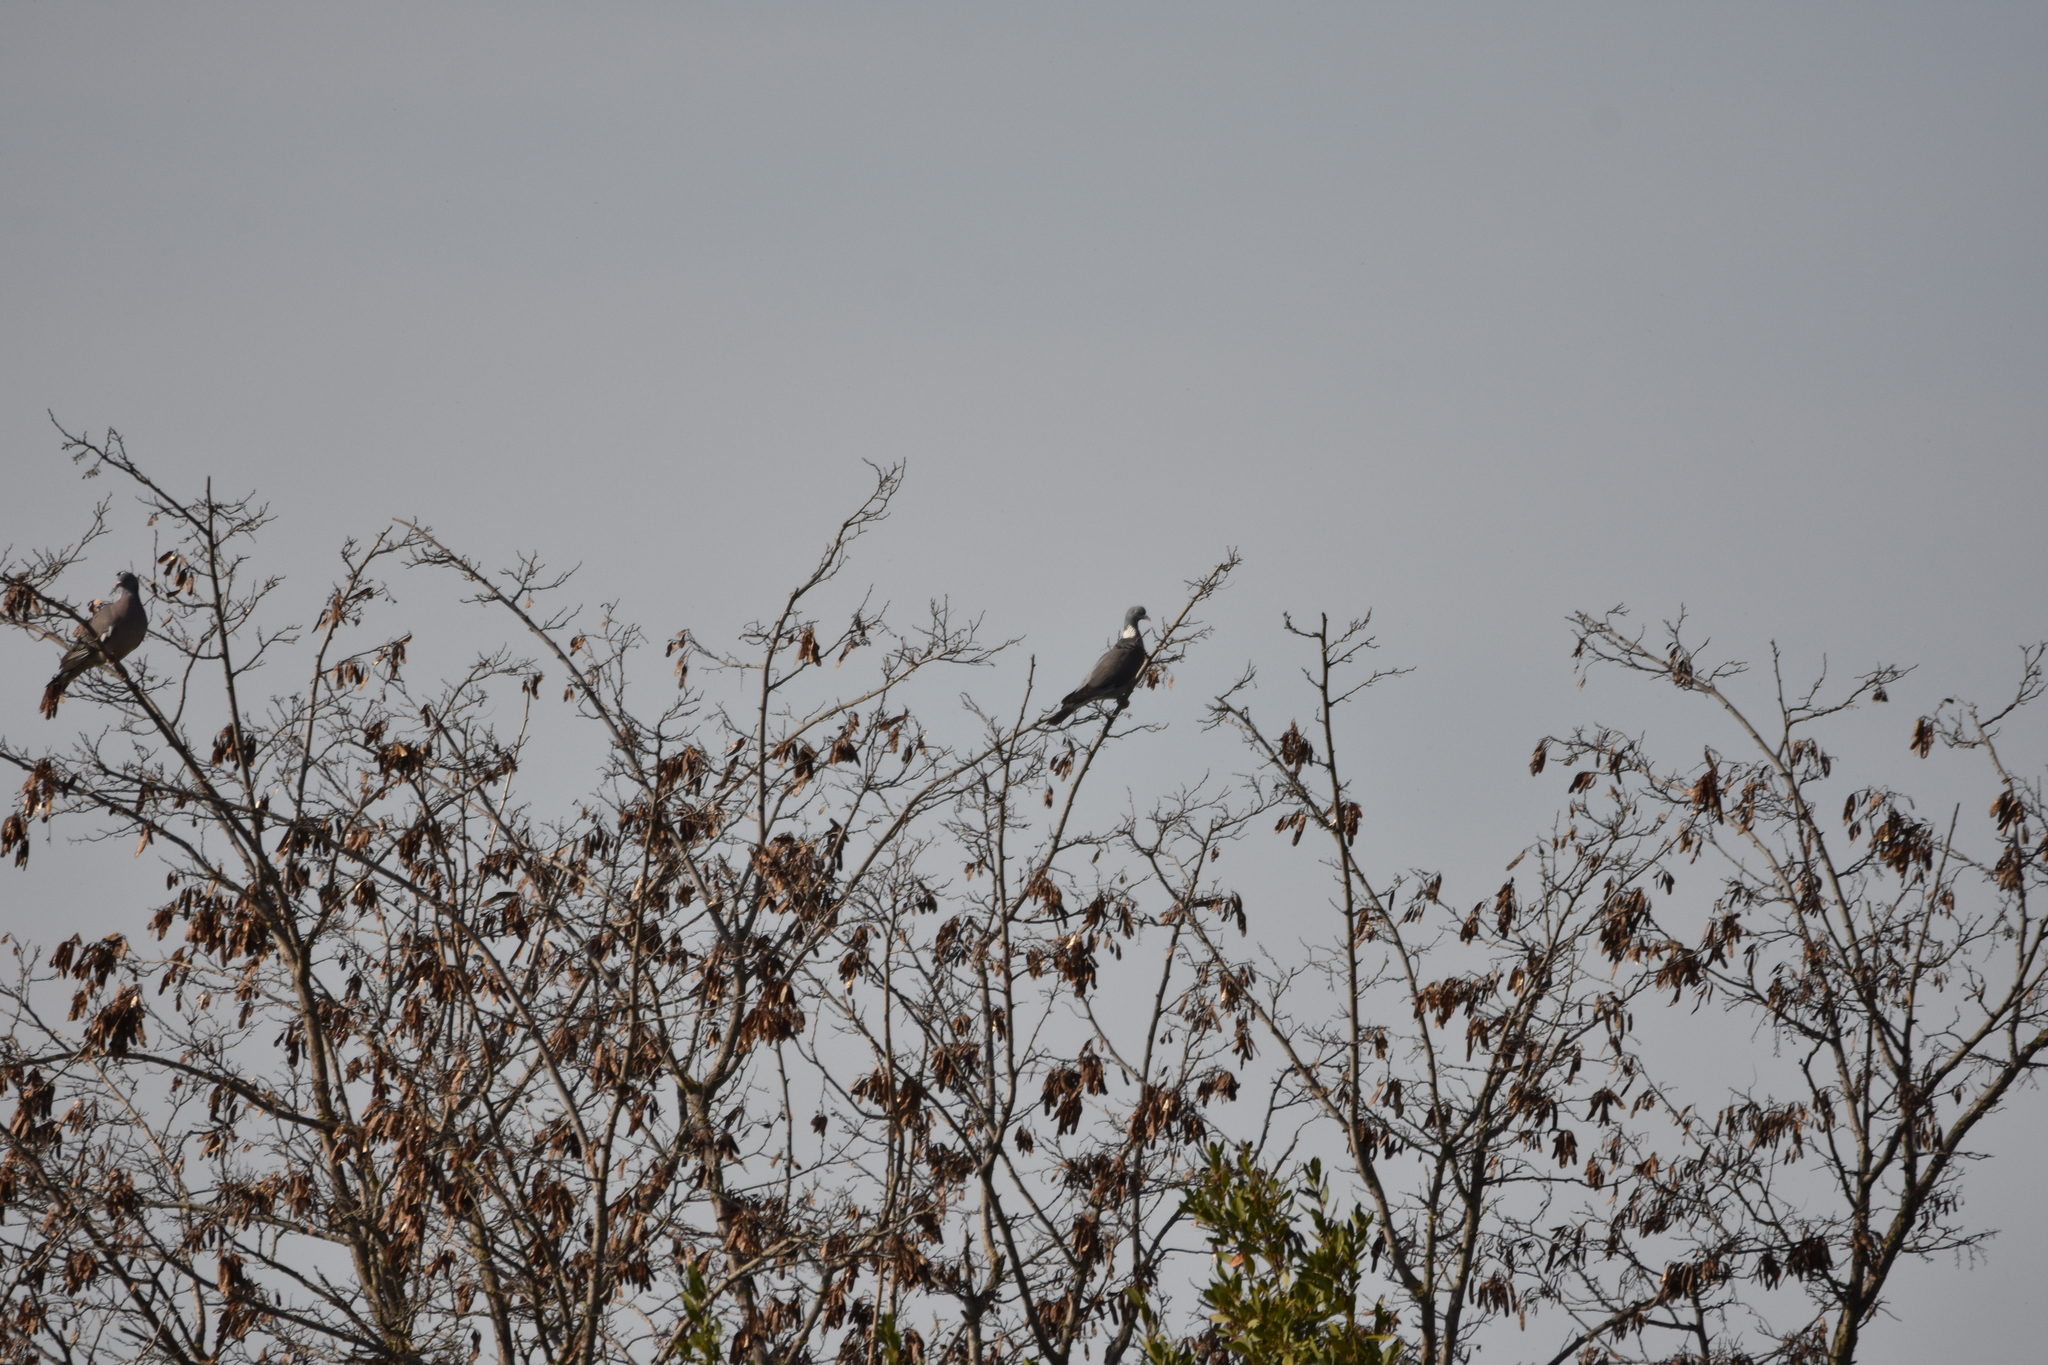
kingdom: Animalia
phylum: Chordata
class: Aves
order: Columbiformes
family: Columbidae
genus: Columba
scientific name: Columba palumbus
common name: Common wood pigeon
